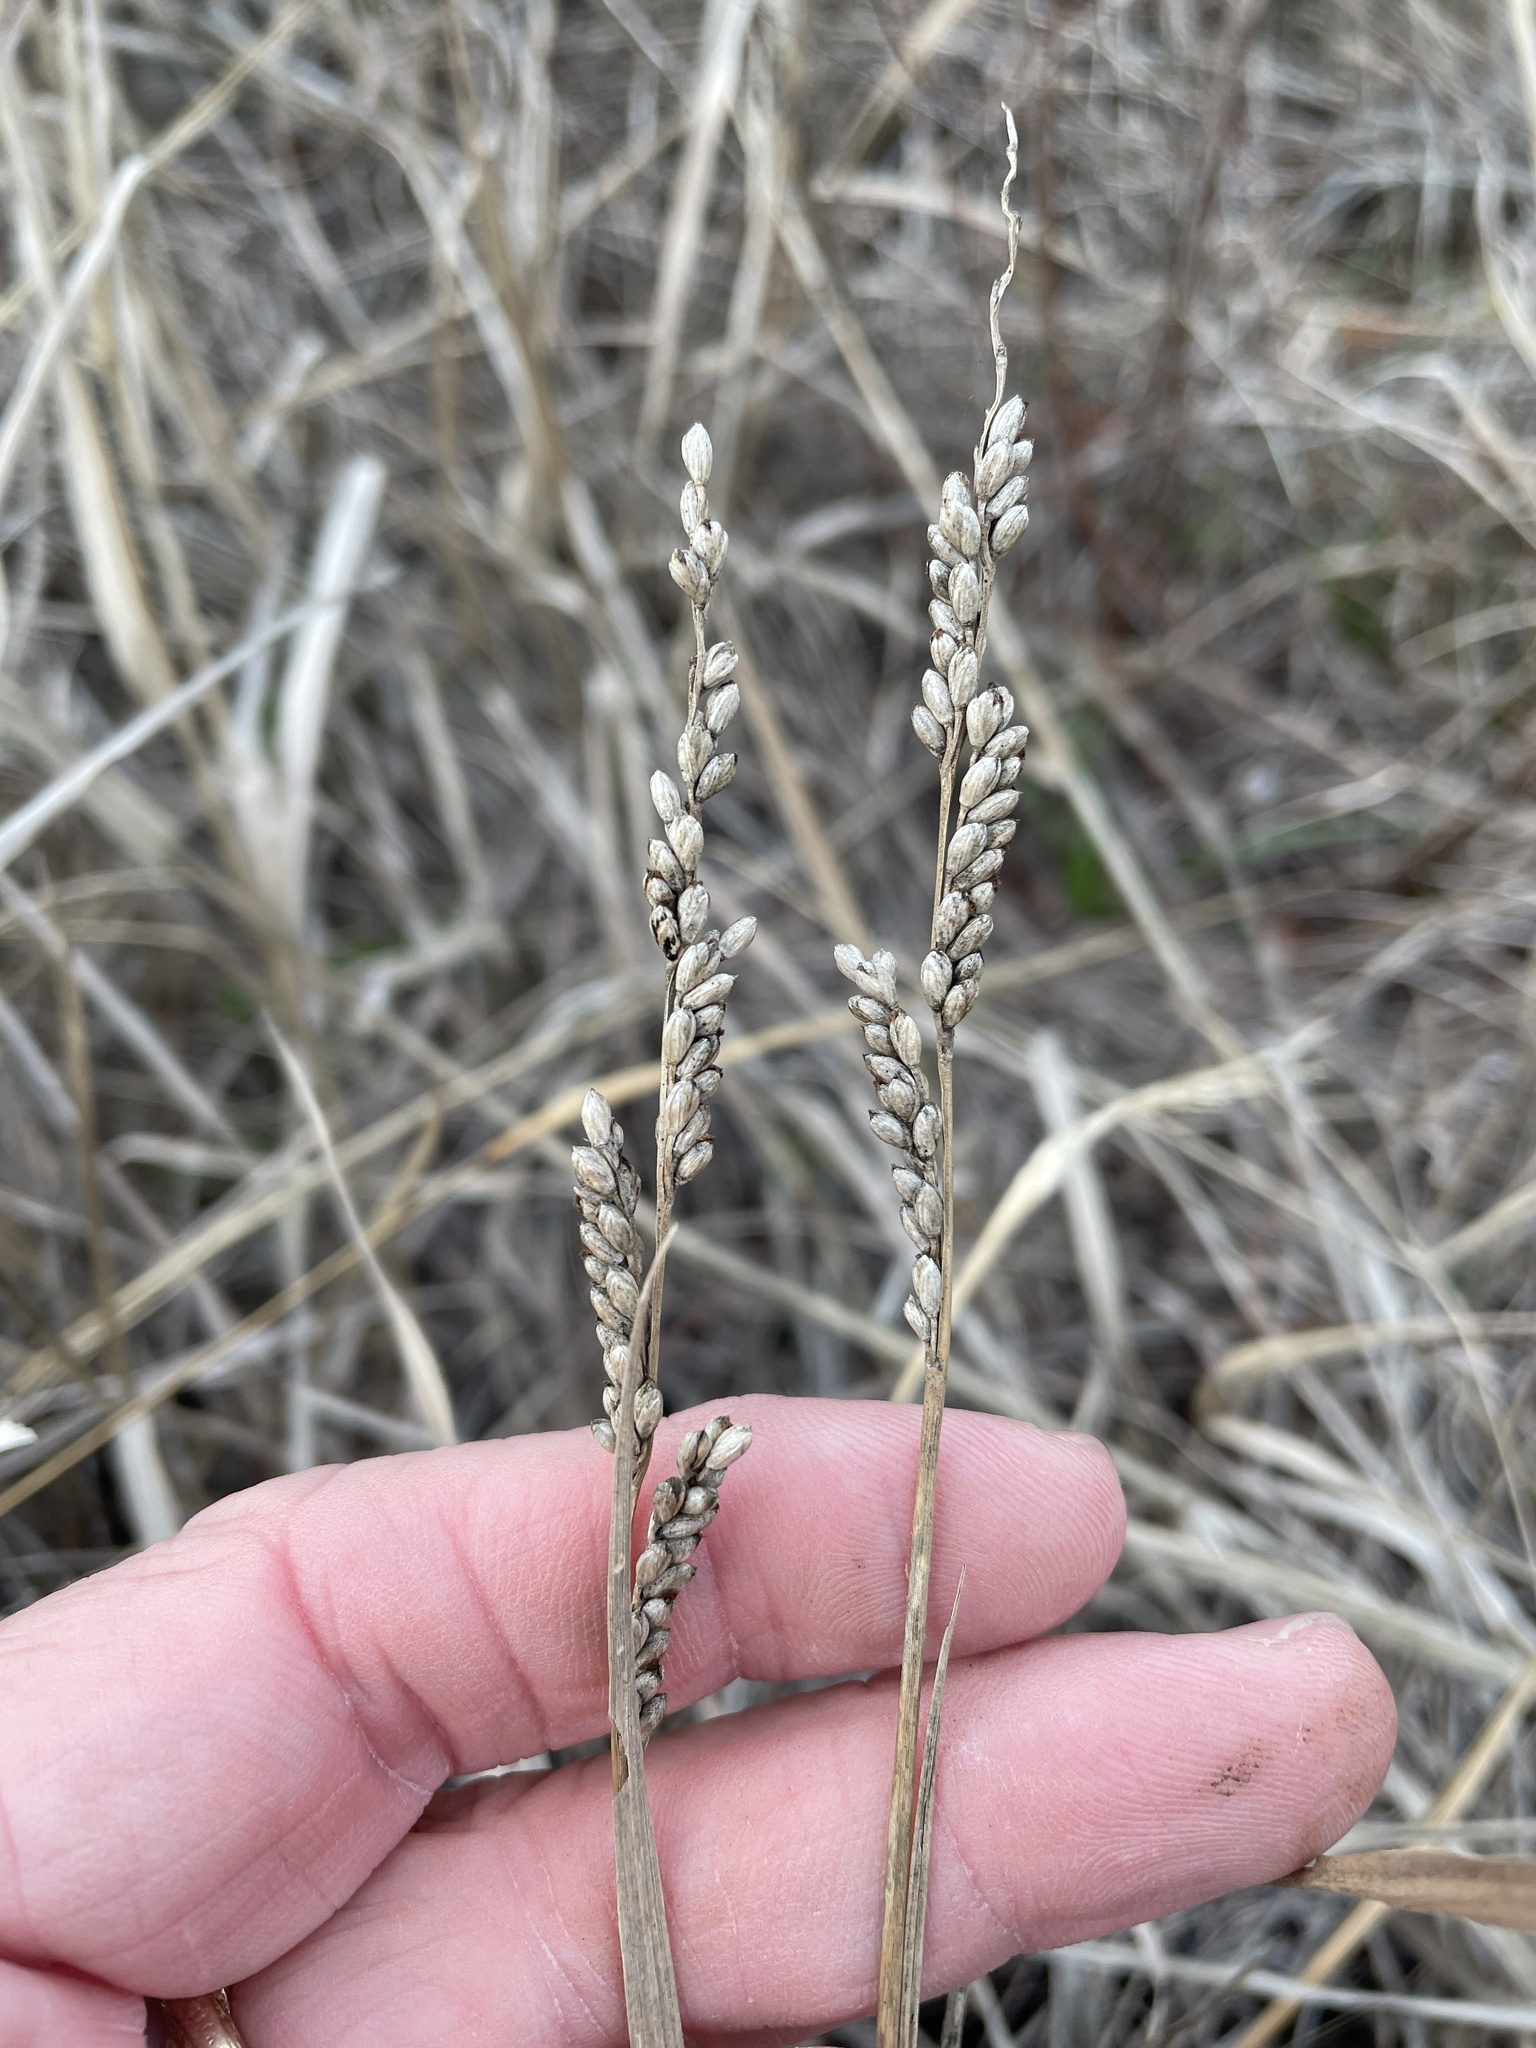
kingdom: Plantae
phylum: Tracheophyta
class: Liliopsida
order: Poales
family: Poaceae
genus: Hopia
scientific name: Hopia obtusa
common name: Vine-mesquite
